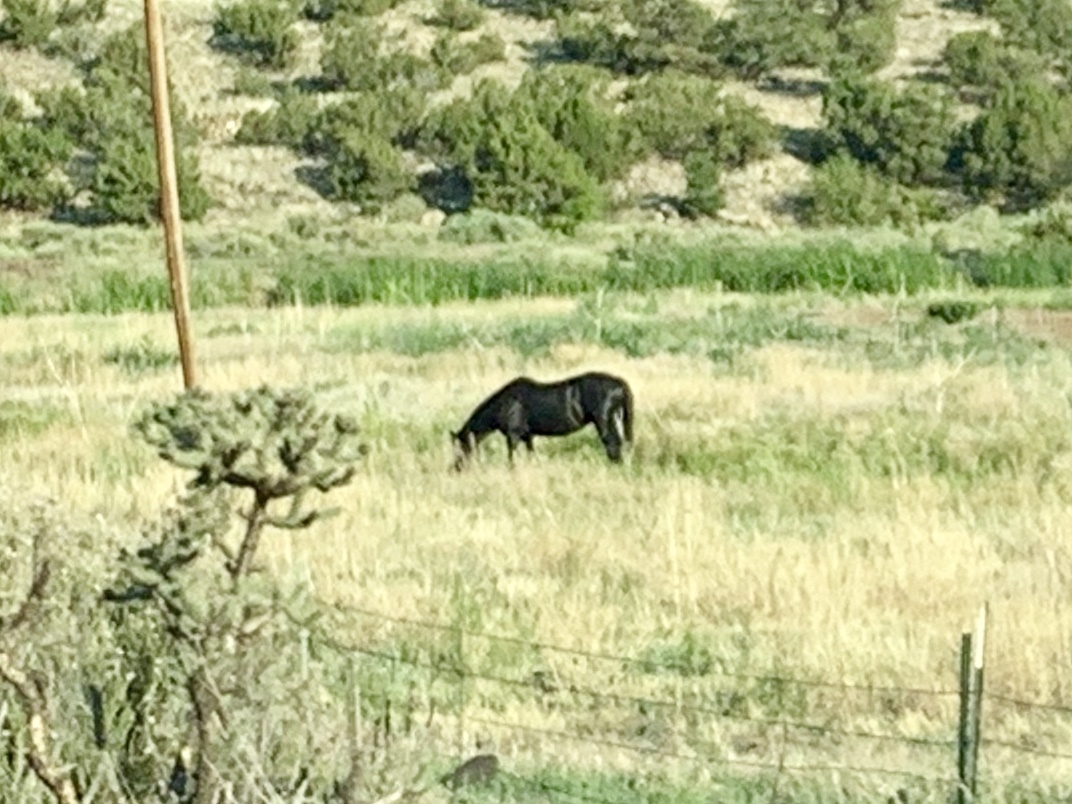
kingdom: Animalia
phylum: Chordata
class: Mammalia
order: Perissodactyla
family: Equidae
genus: Equus
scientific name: Equus caballus
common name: Horse
